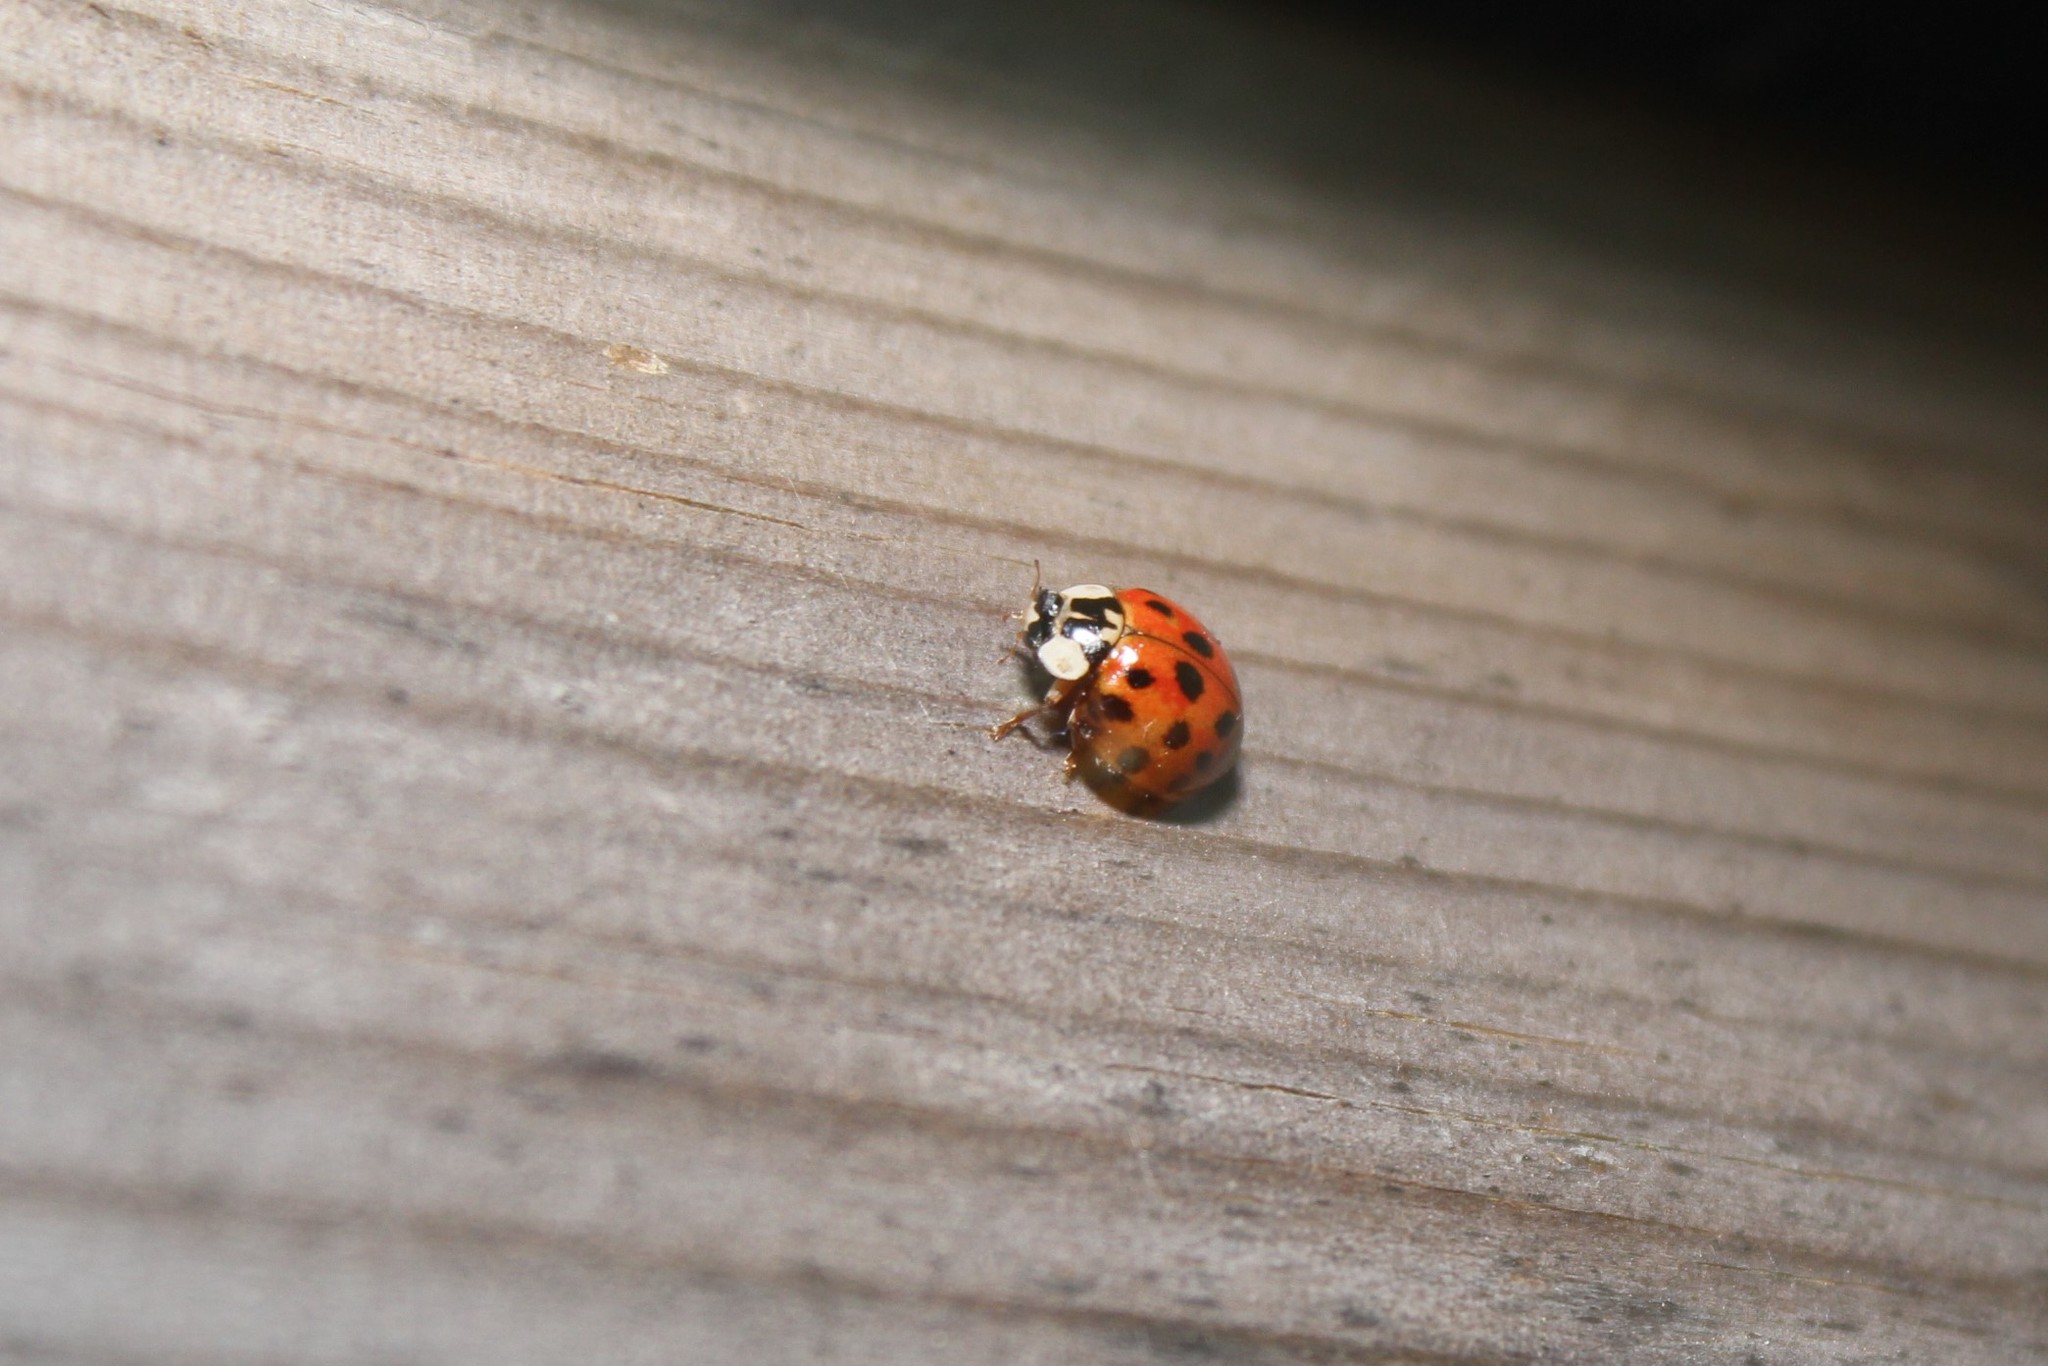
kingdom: Animalia
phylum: Arthropoda
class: Insecta
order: Coleoptera
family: Coccinellidae
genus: Harmonia
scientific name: Harmonia axyridis
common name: Harlequin ladybird
